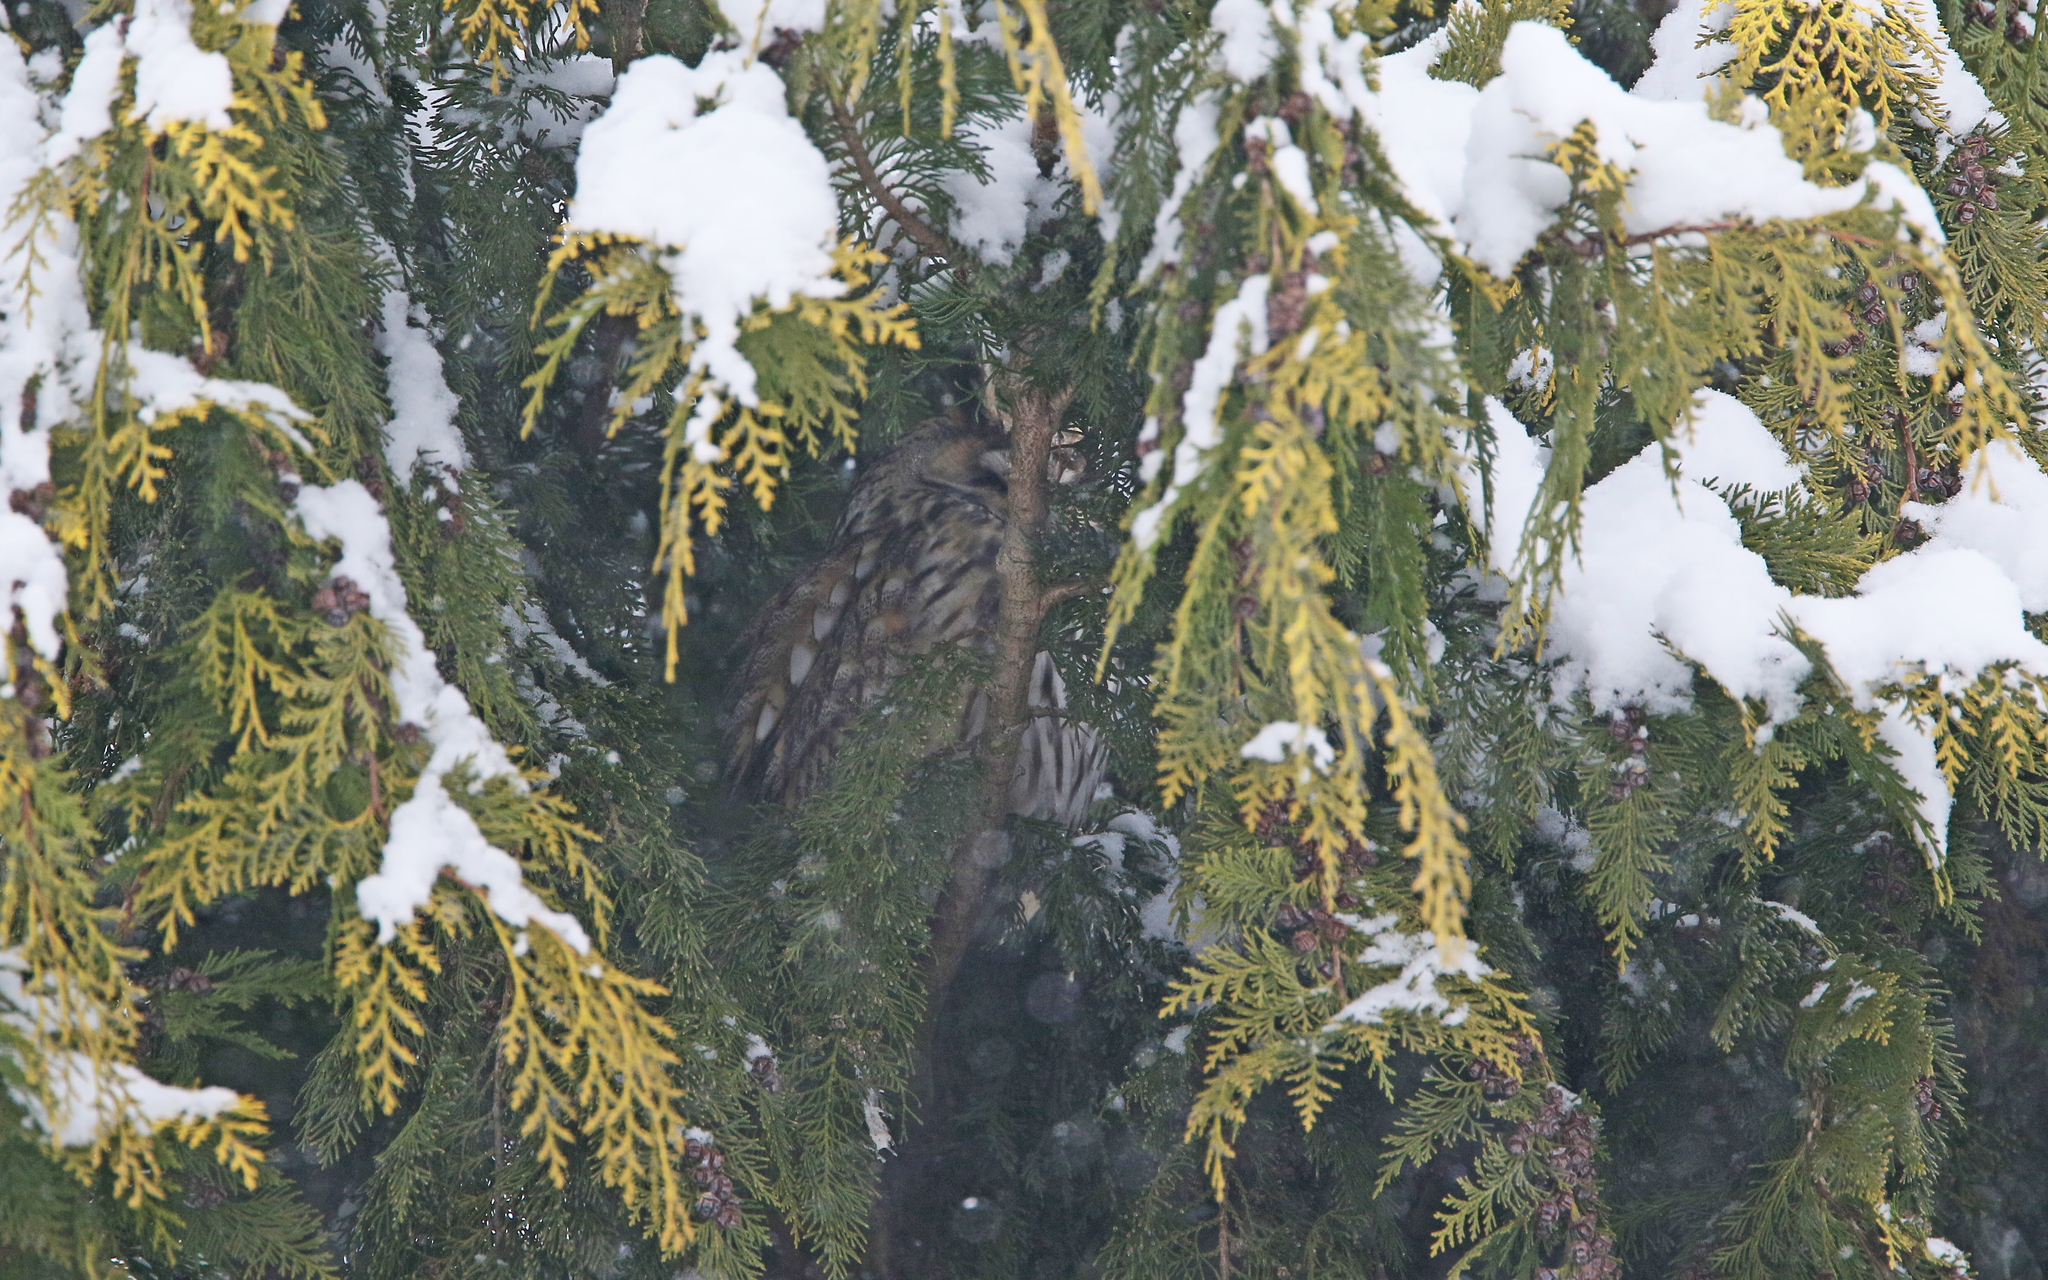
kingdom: Animalia
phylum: Chordata
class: Aves
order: Strigiformes
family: Strigidae
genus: Asio
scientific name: Asio otus
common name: Long-eared owl
